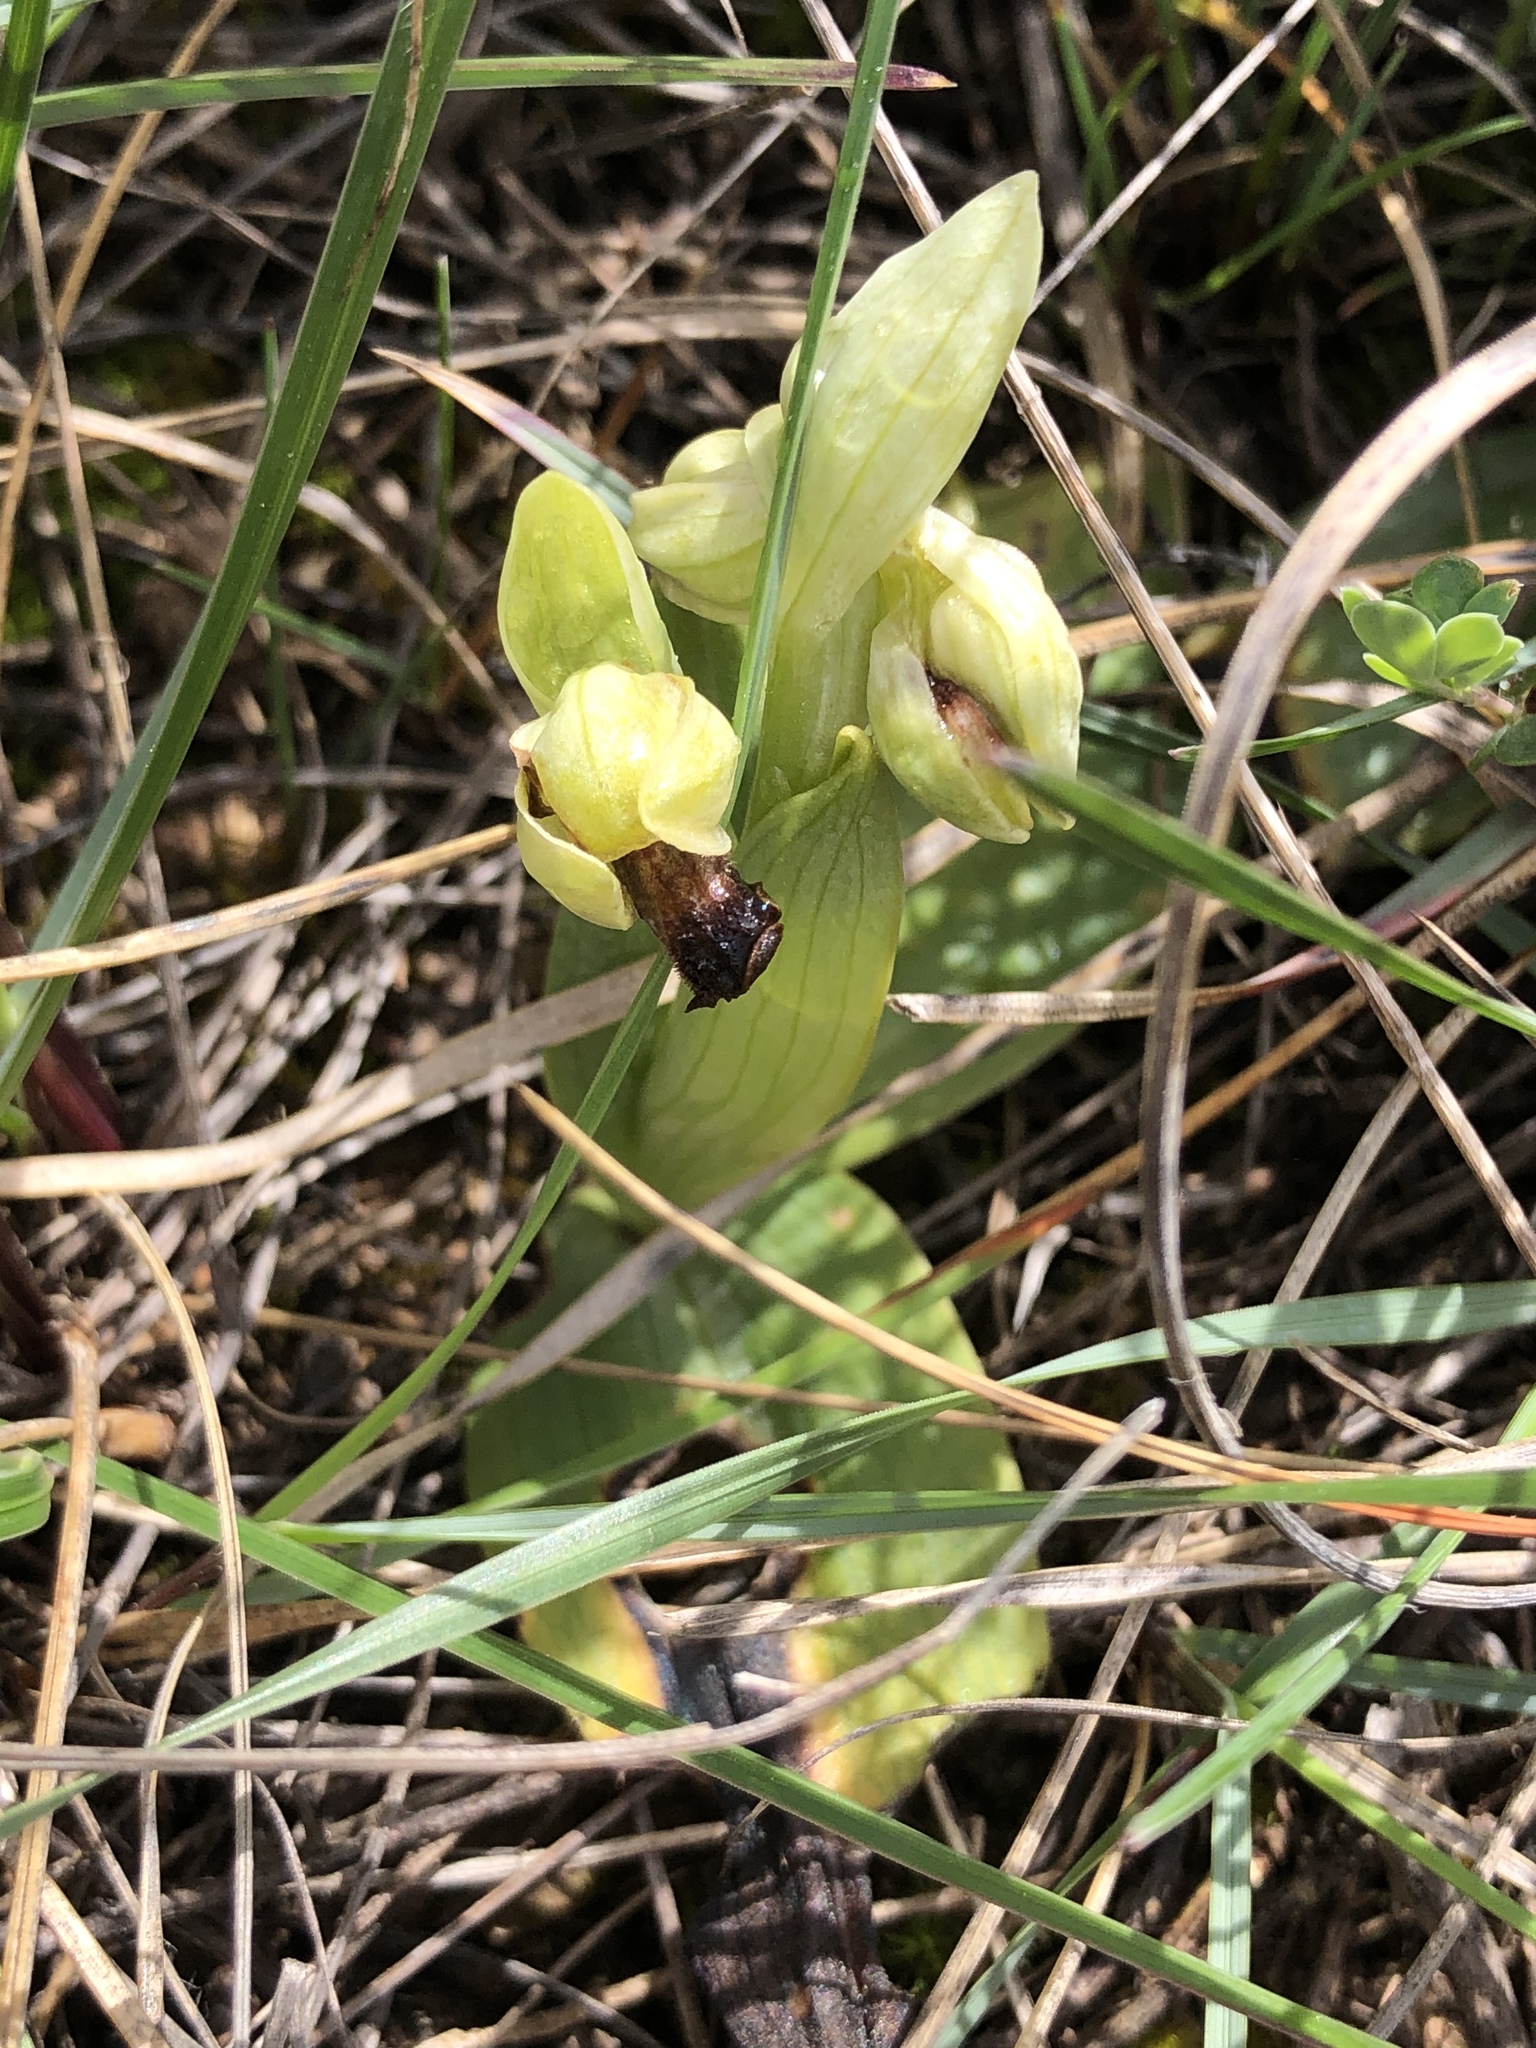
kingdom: Plantae
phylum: Tracheophyta
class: Liliopsida
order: Asparagales
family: Orchidaceae
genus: Ophrys
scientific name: Ophrys fusca
